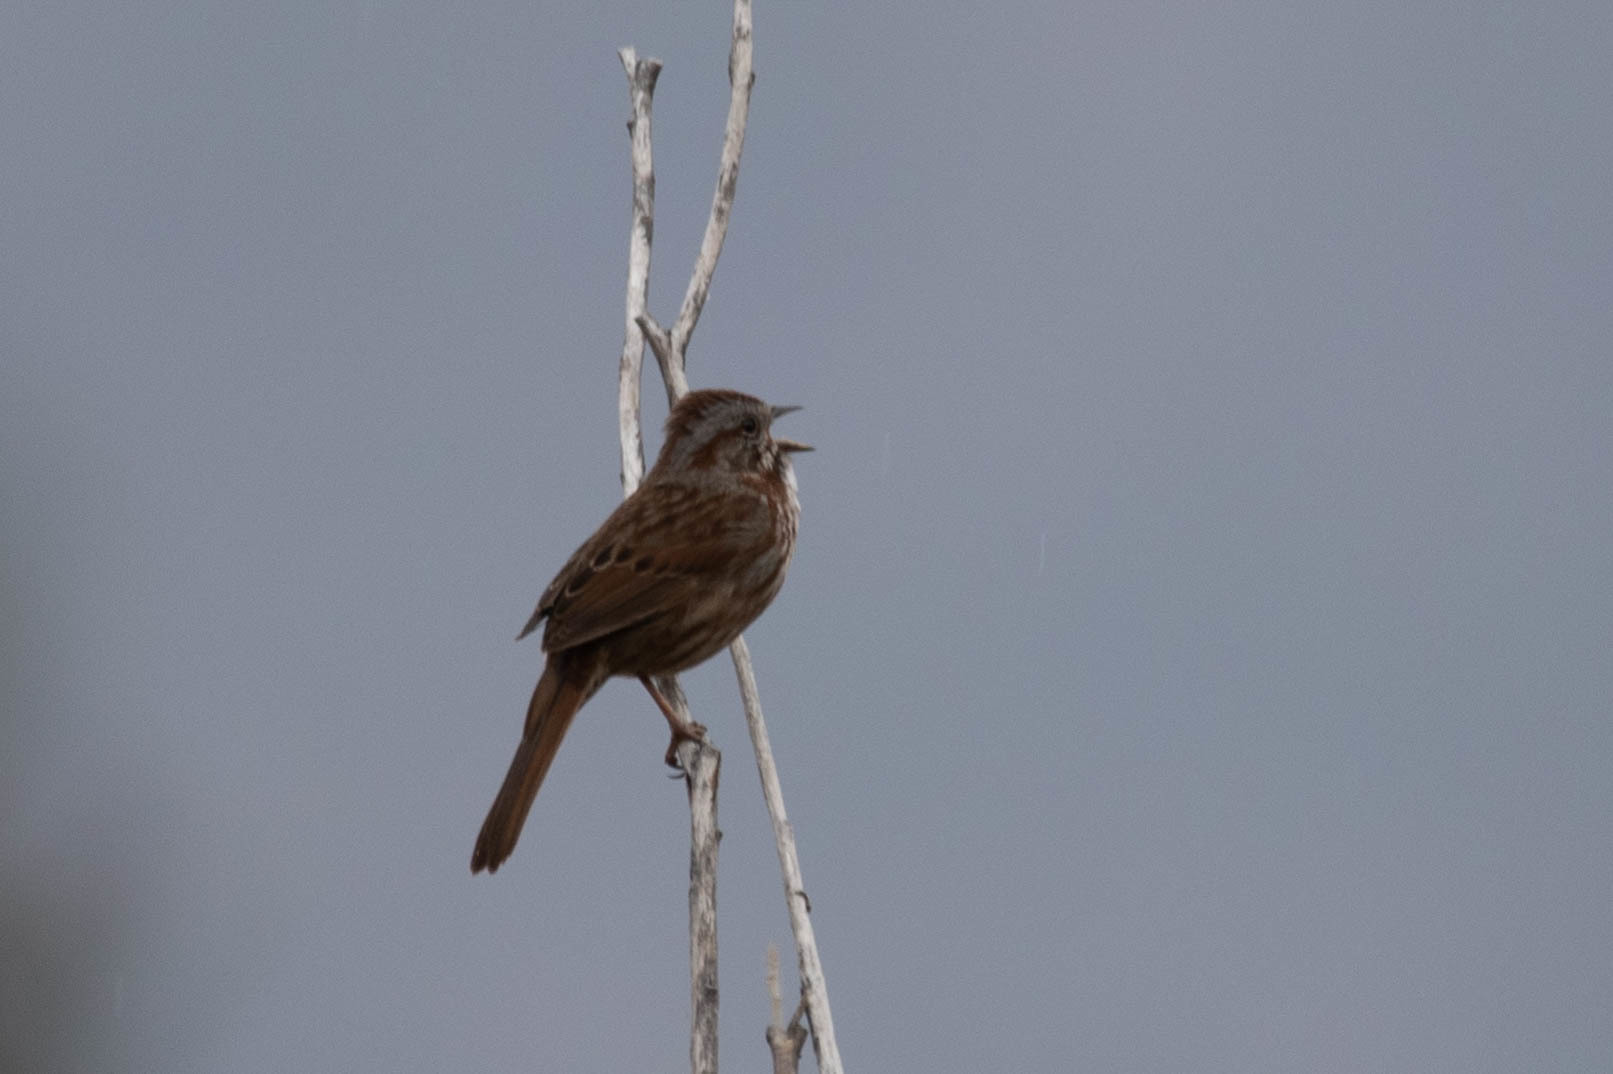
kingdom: Animalia
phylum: Chordata
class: Aves
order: Passeriformes
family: Passerellidae
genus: Melospiza
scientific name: Melospiza melodia
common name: Song sparrow
